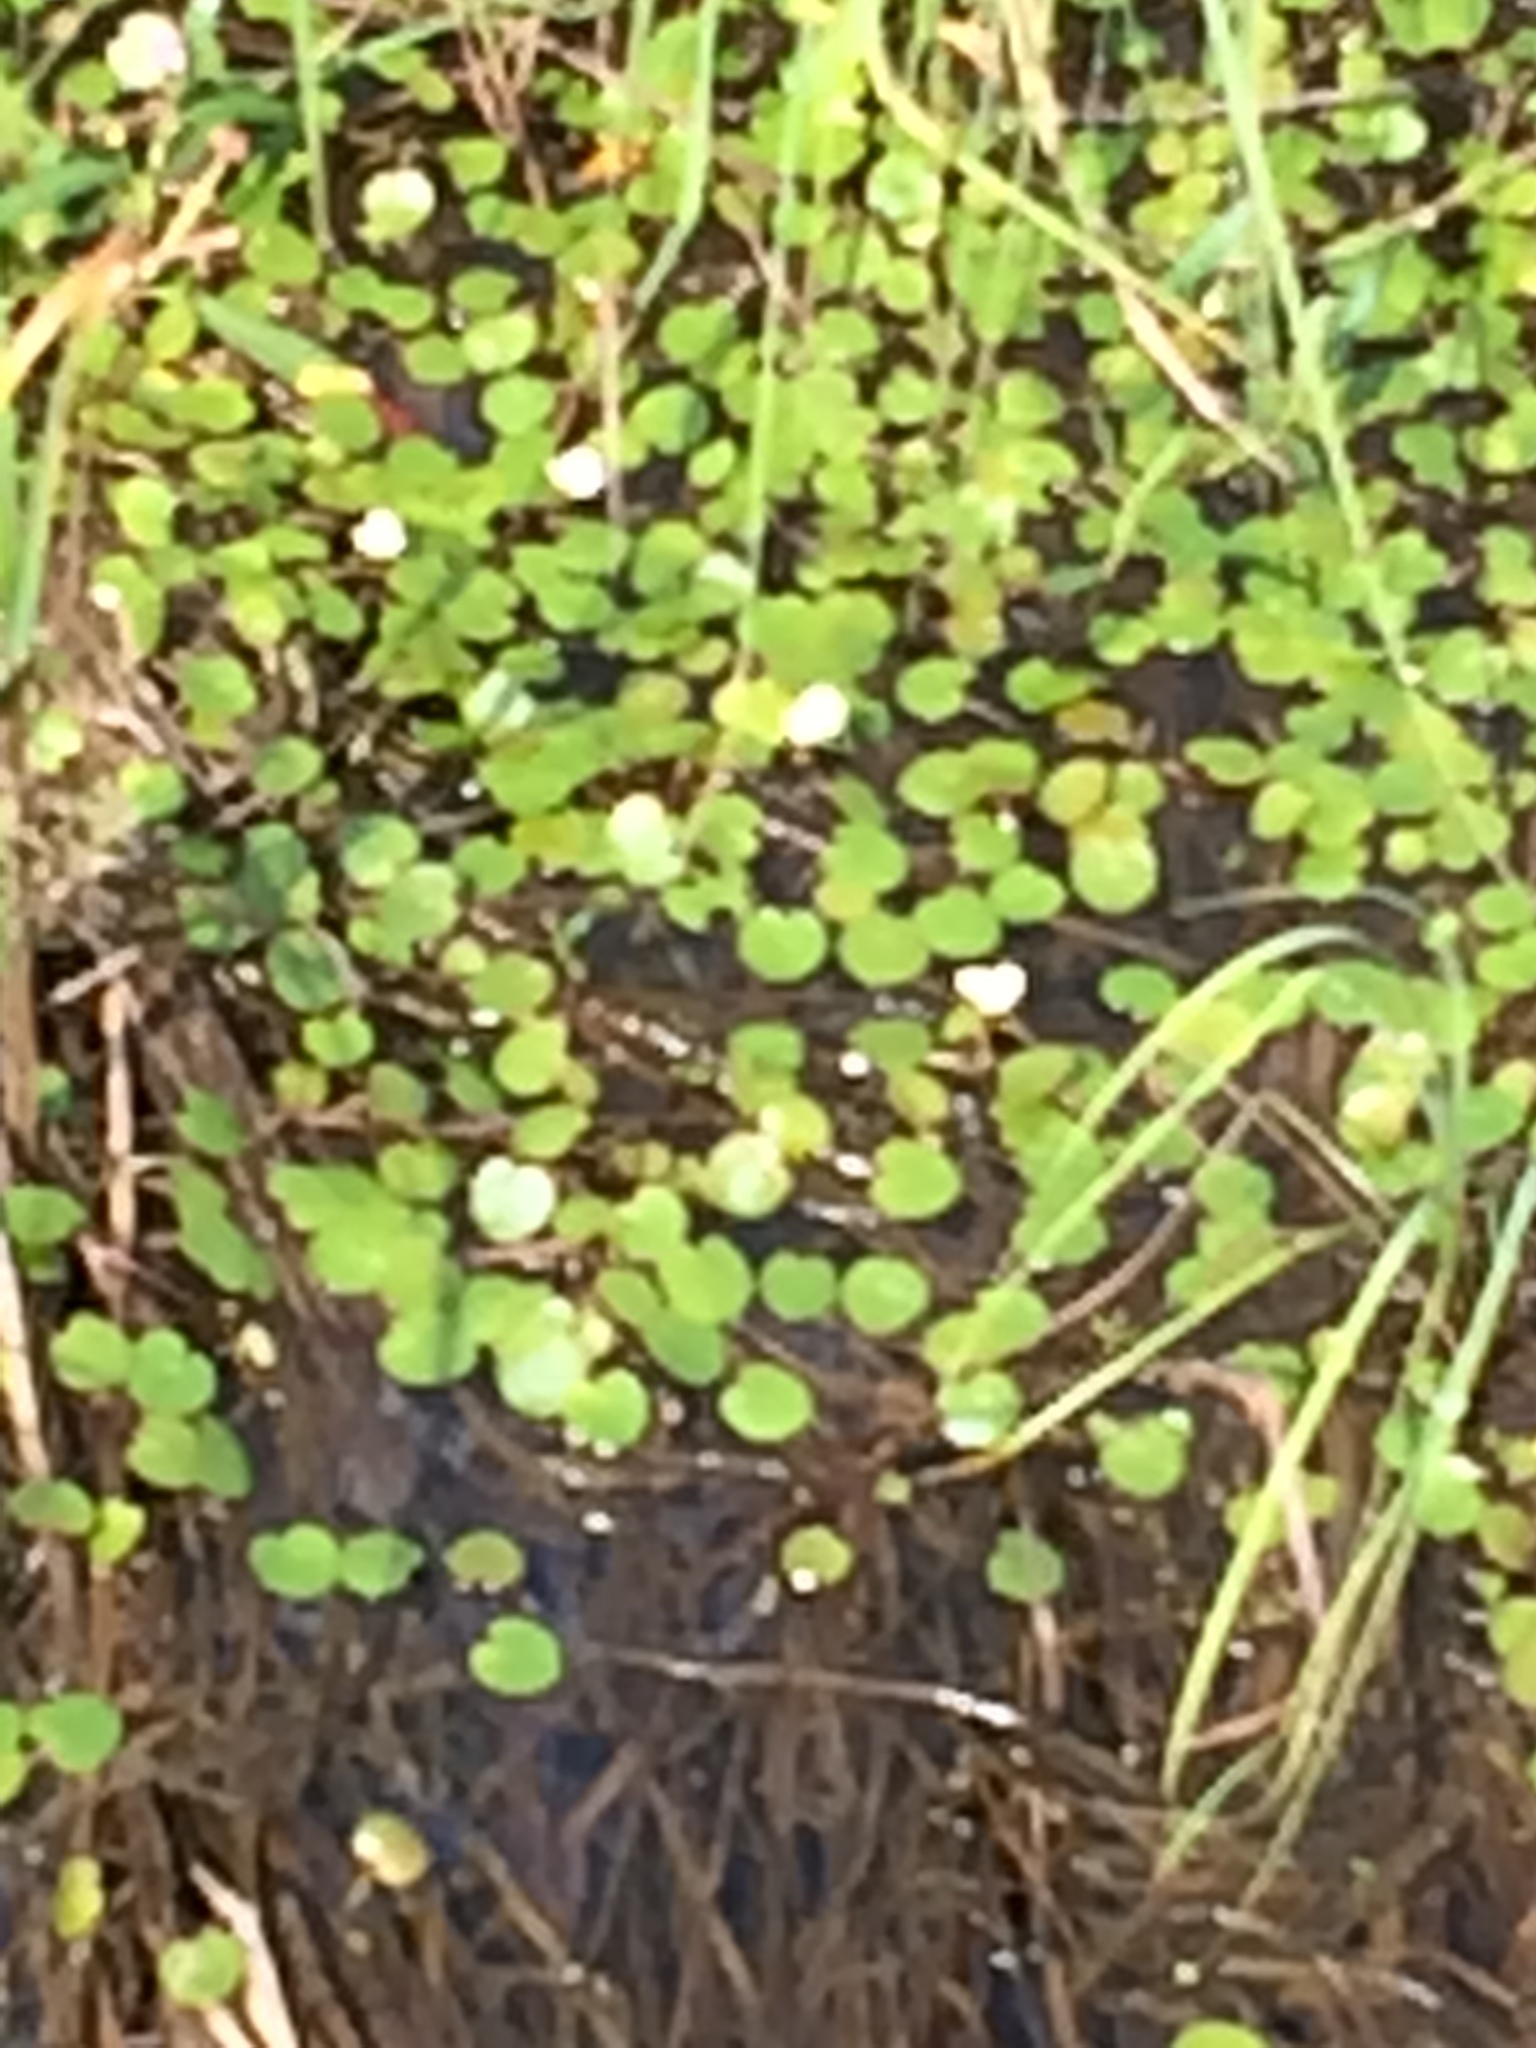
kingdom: Plantae
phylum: Tracheophyta
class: Liliopsida
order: Alismatales
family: Hydrocharitaceae
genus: Hydrocharis
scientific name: Hydrocharis morsus-ranae
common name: Frogbit
